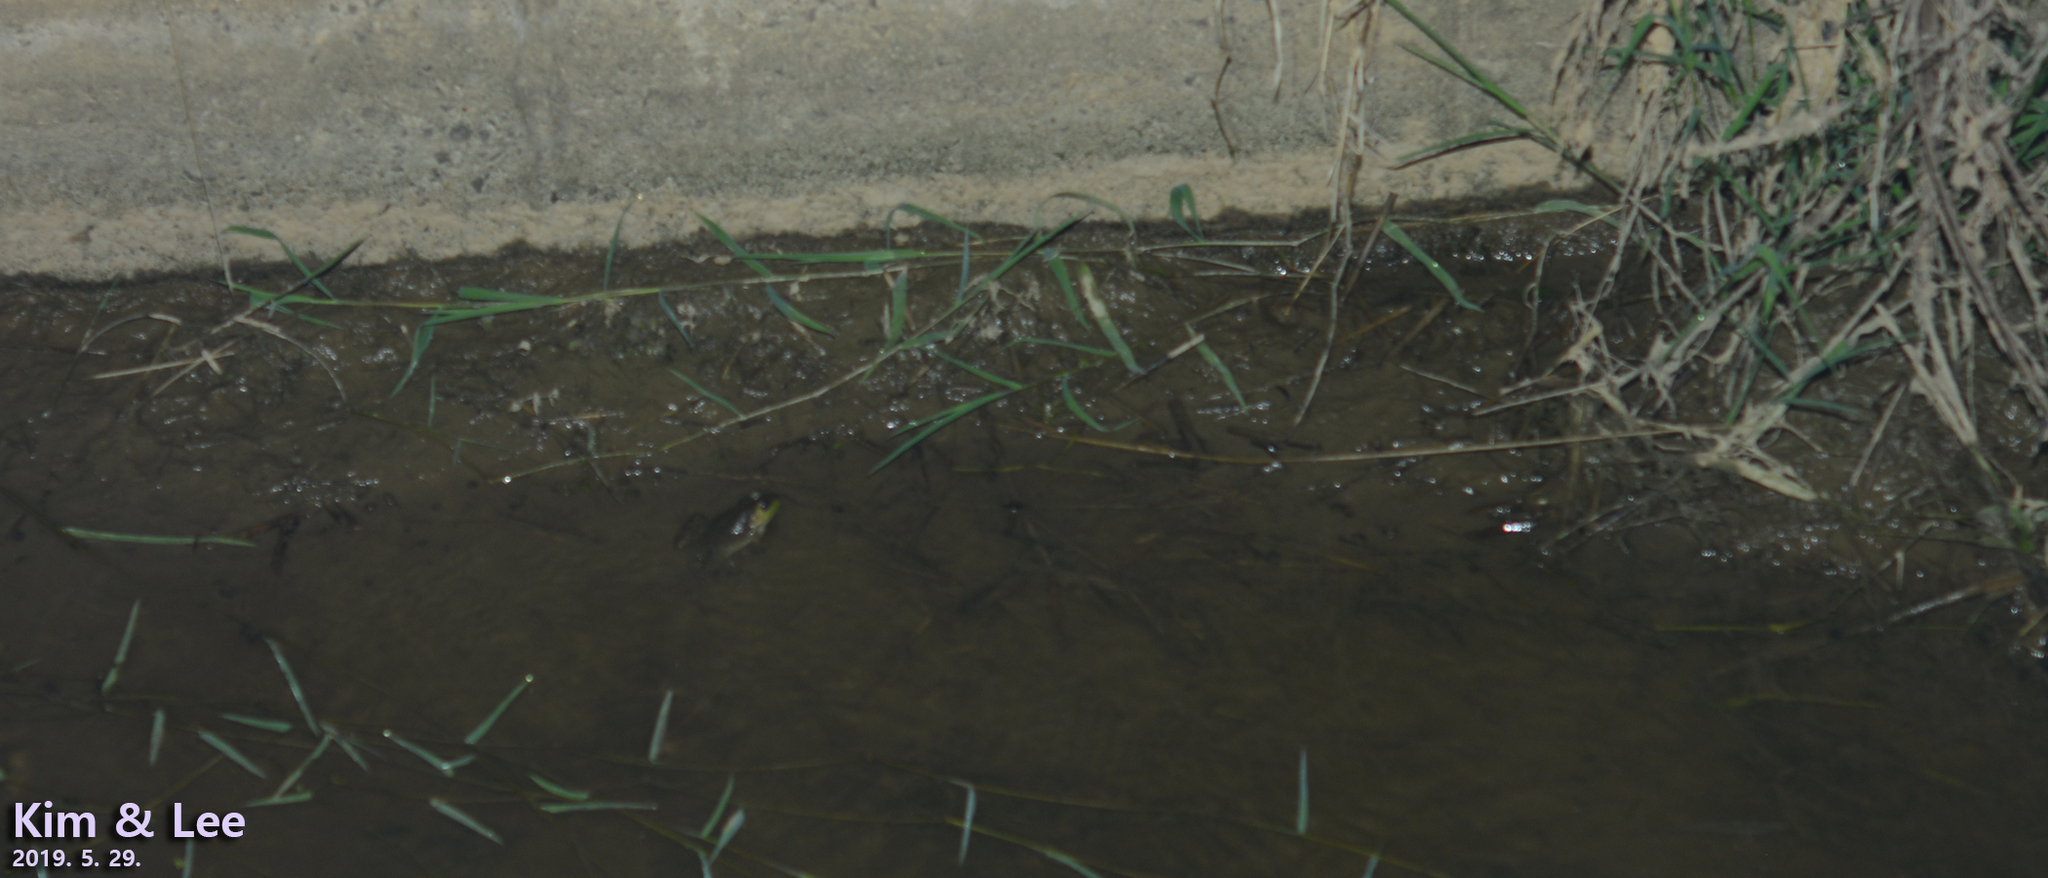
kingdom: Animalia
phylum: Chordata
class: Amphibia
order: Anura
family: Ranidae
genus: Lithobates
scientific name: Lithobates catesbeianus
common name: American bullfrog
